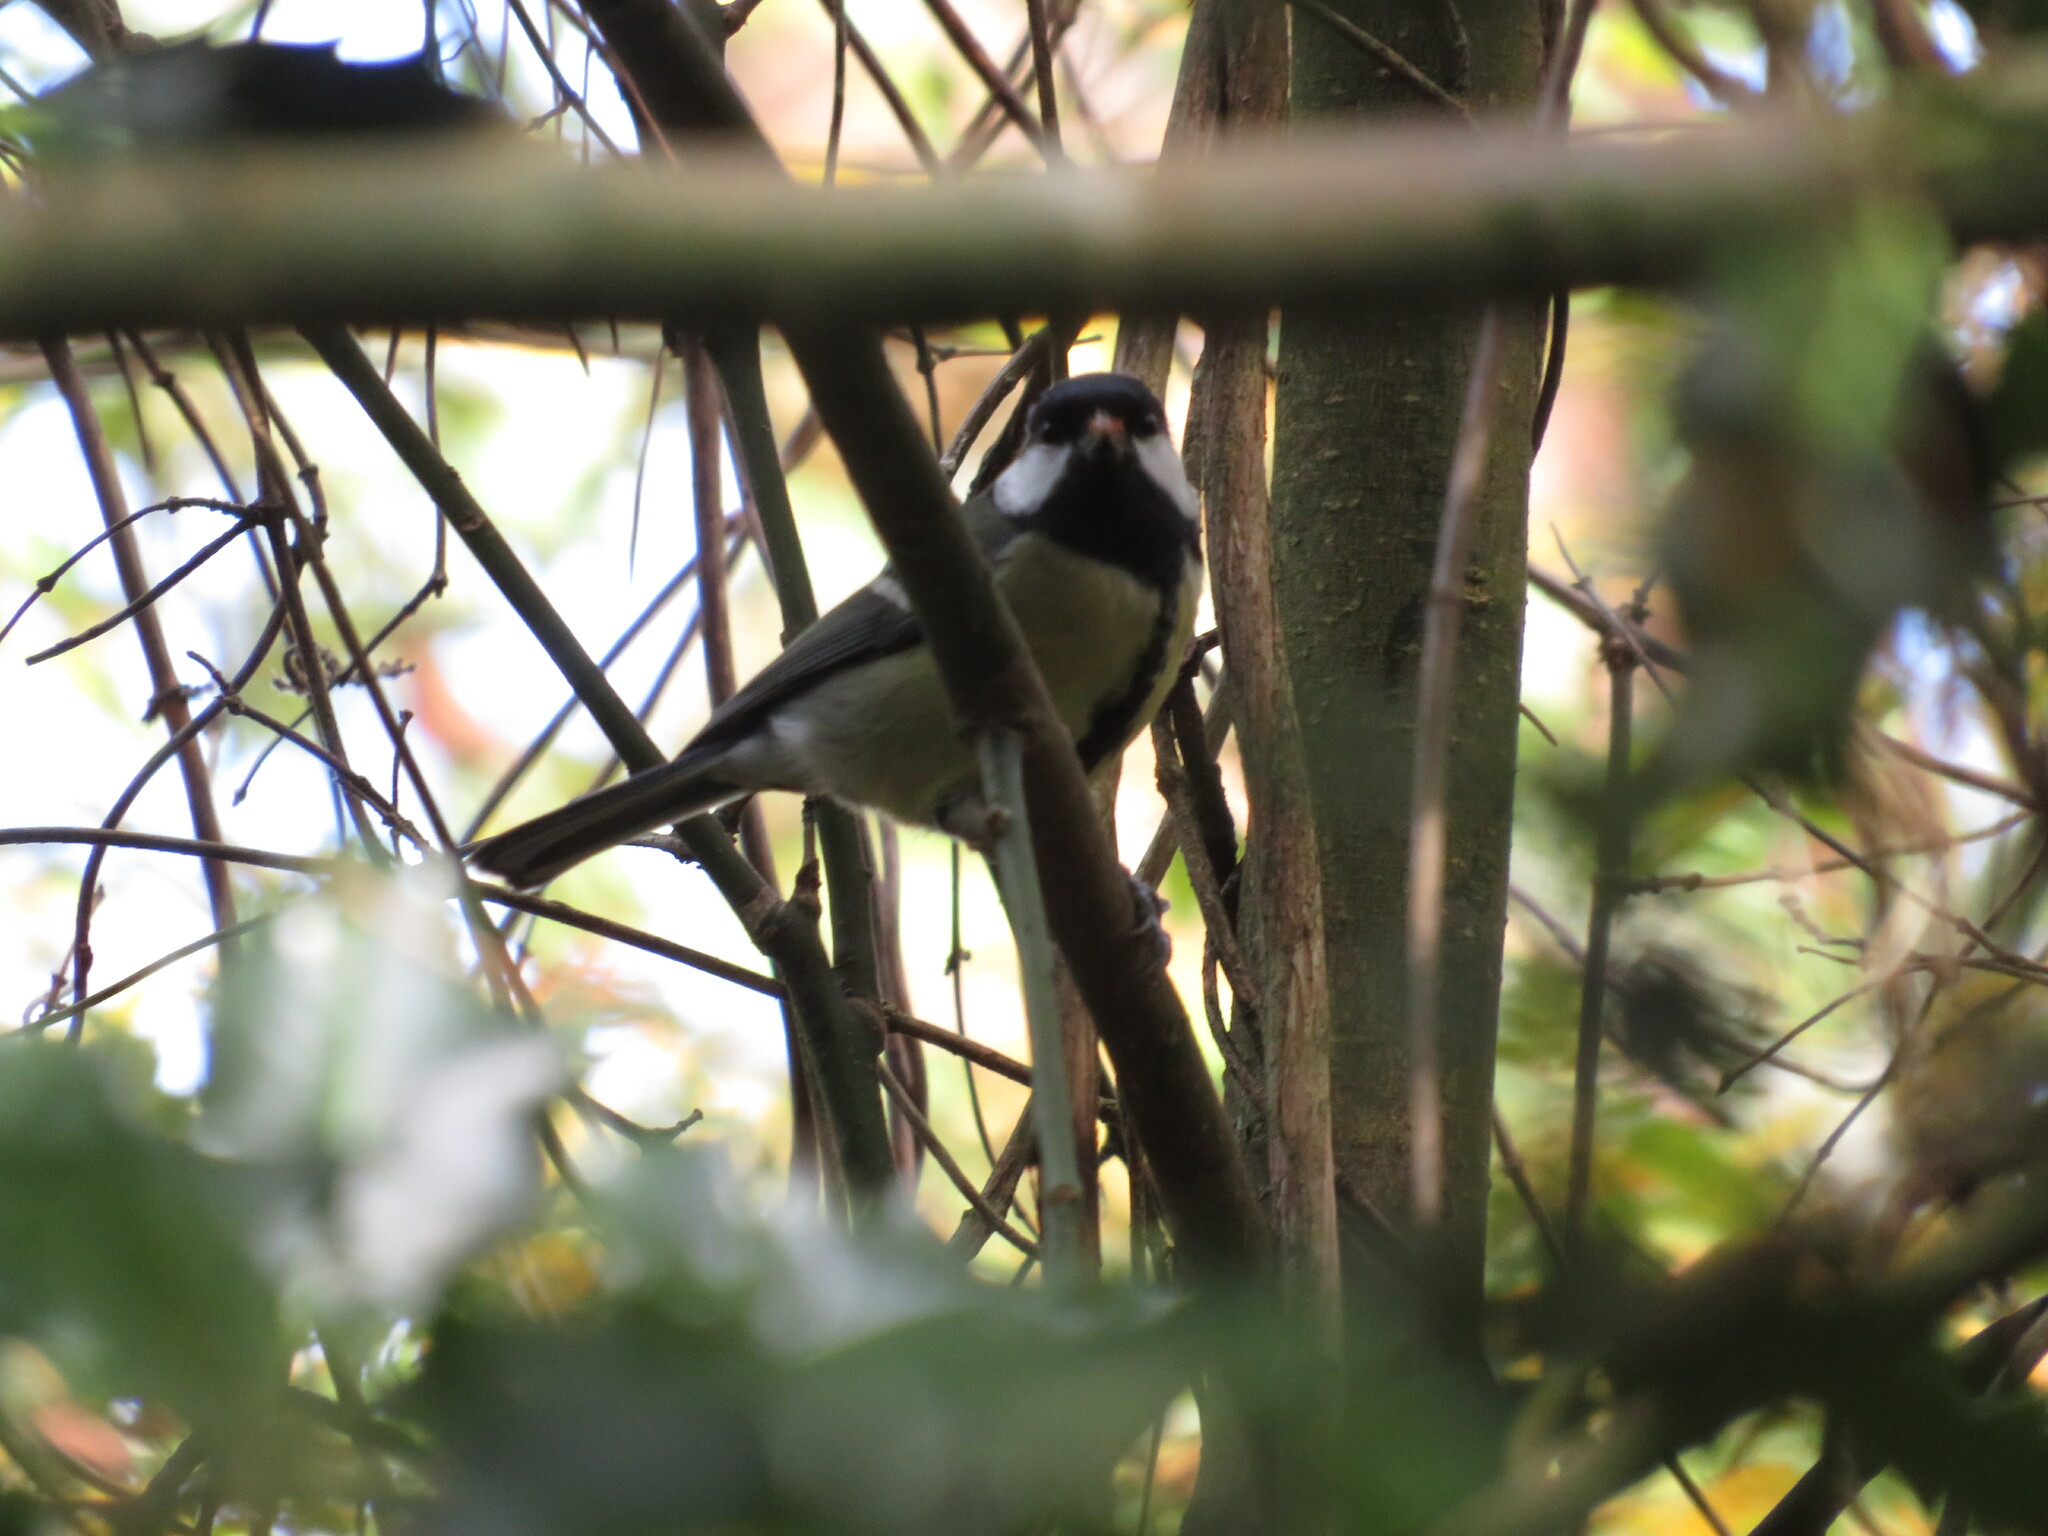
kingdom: Animalia
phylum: Chordata
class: Aves
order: Passeriformes
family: Paridae
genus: Parus
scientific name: Parus major
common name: Great tit
